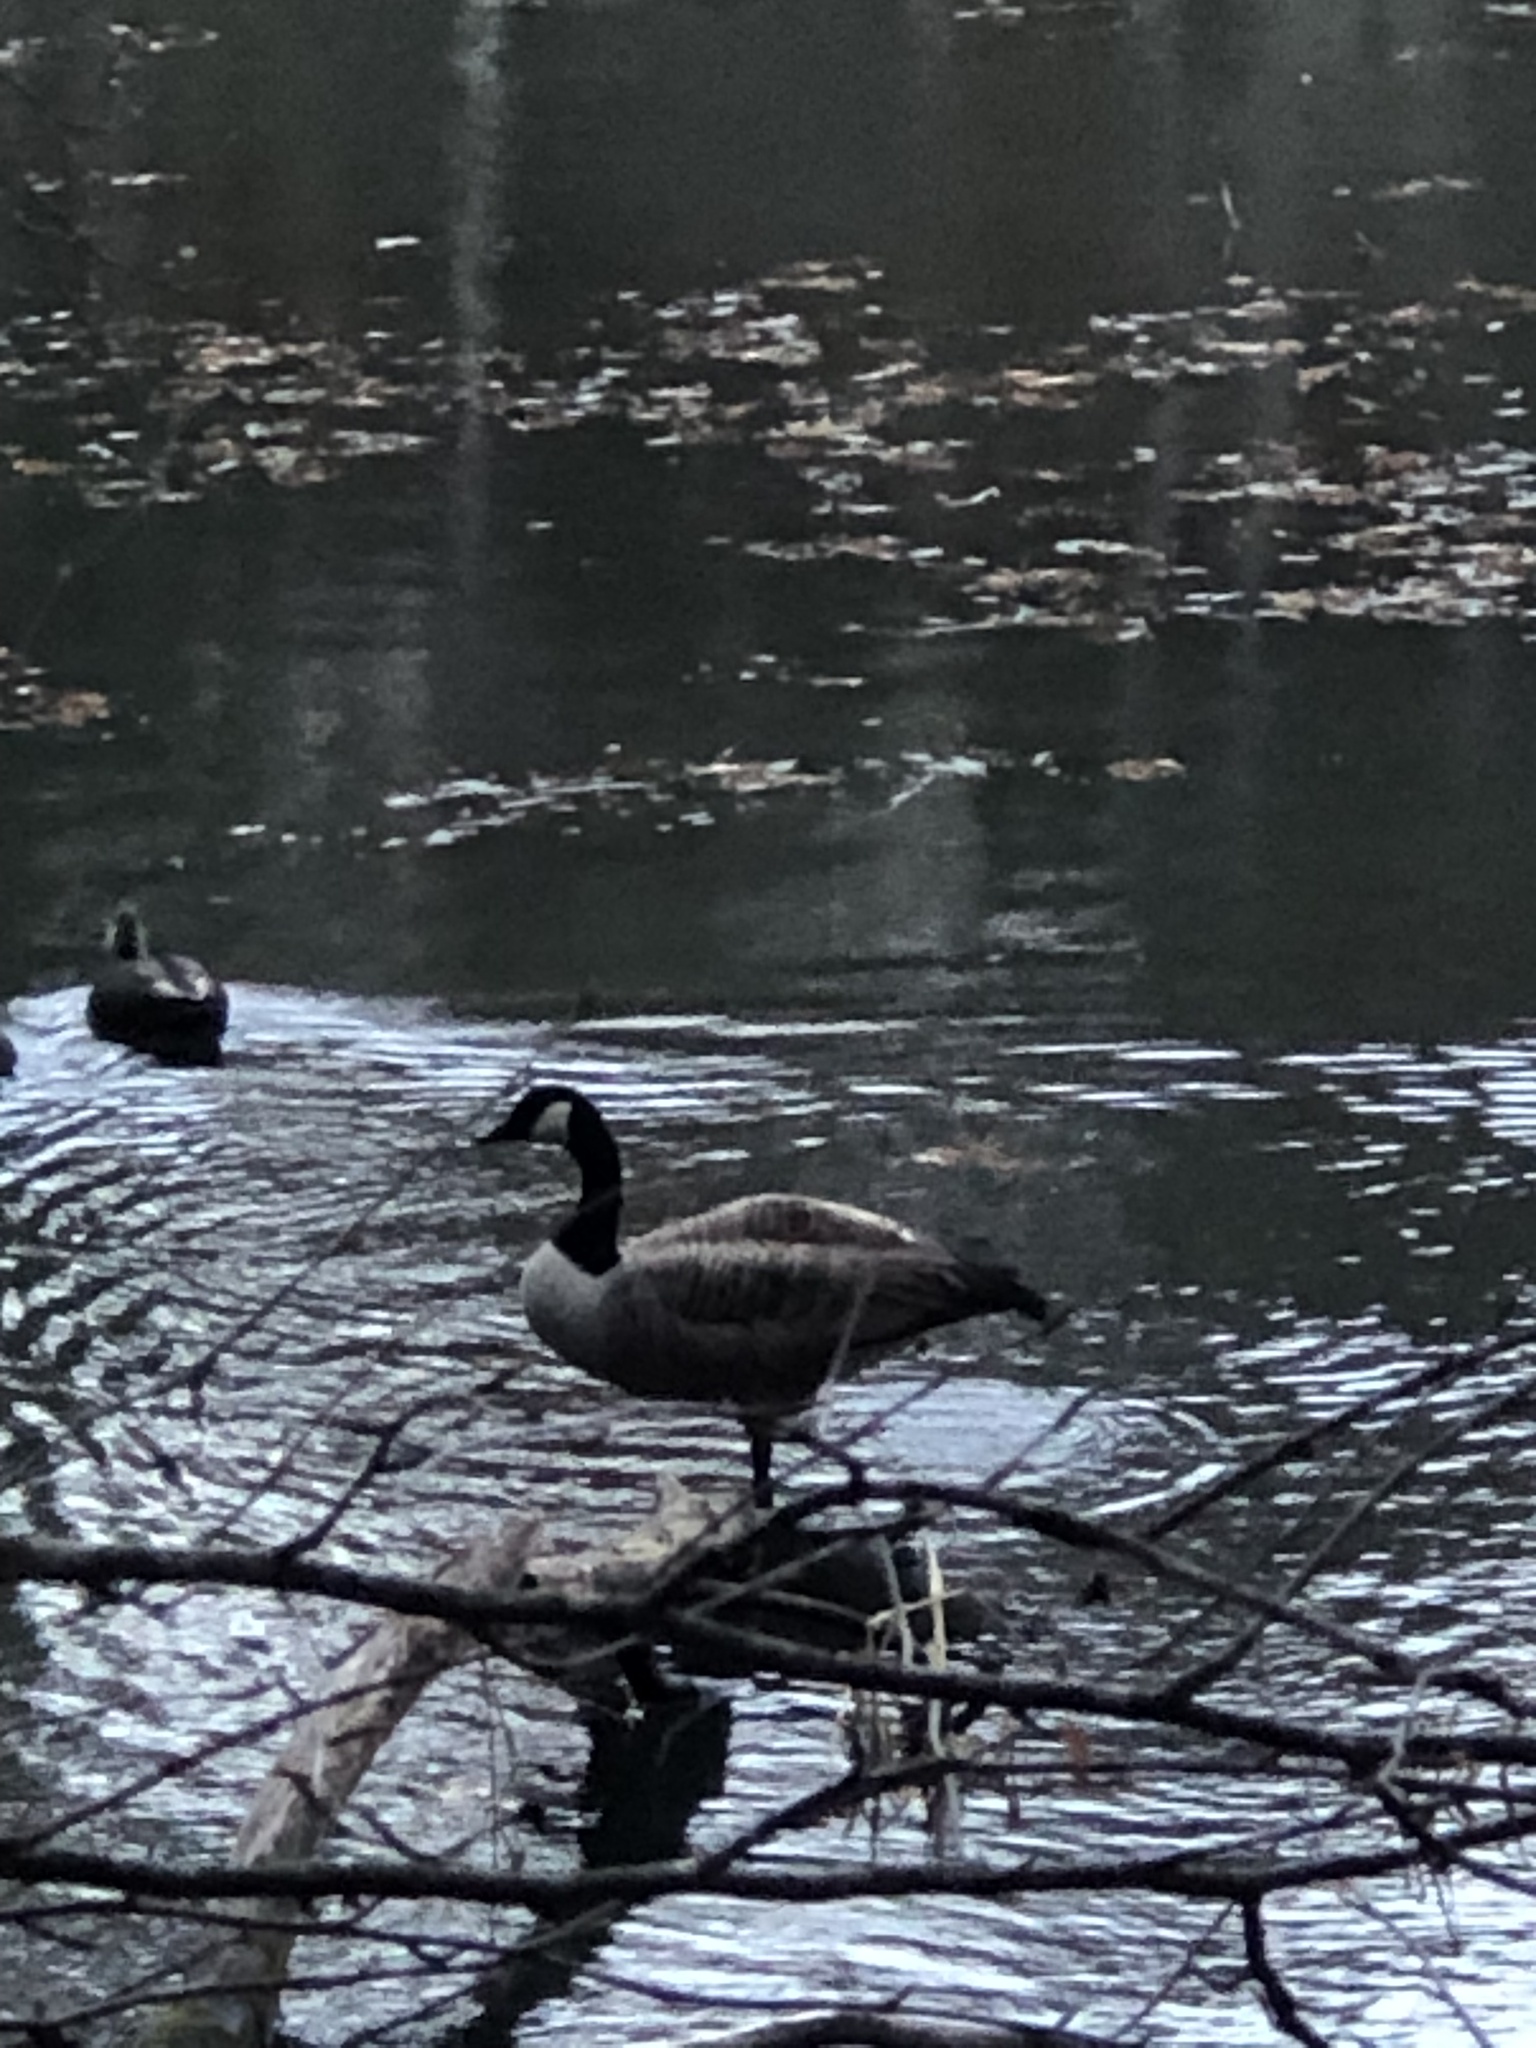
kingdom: Animalia
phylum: Chordata
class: Aves
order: Anseriformes
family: Anatidae
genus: Branta
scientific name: Branta canadensis
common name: Canada goose
